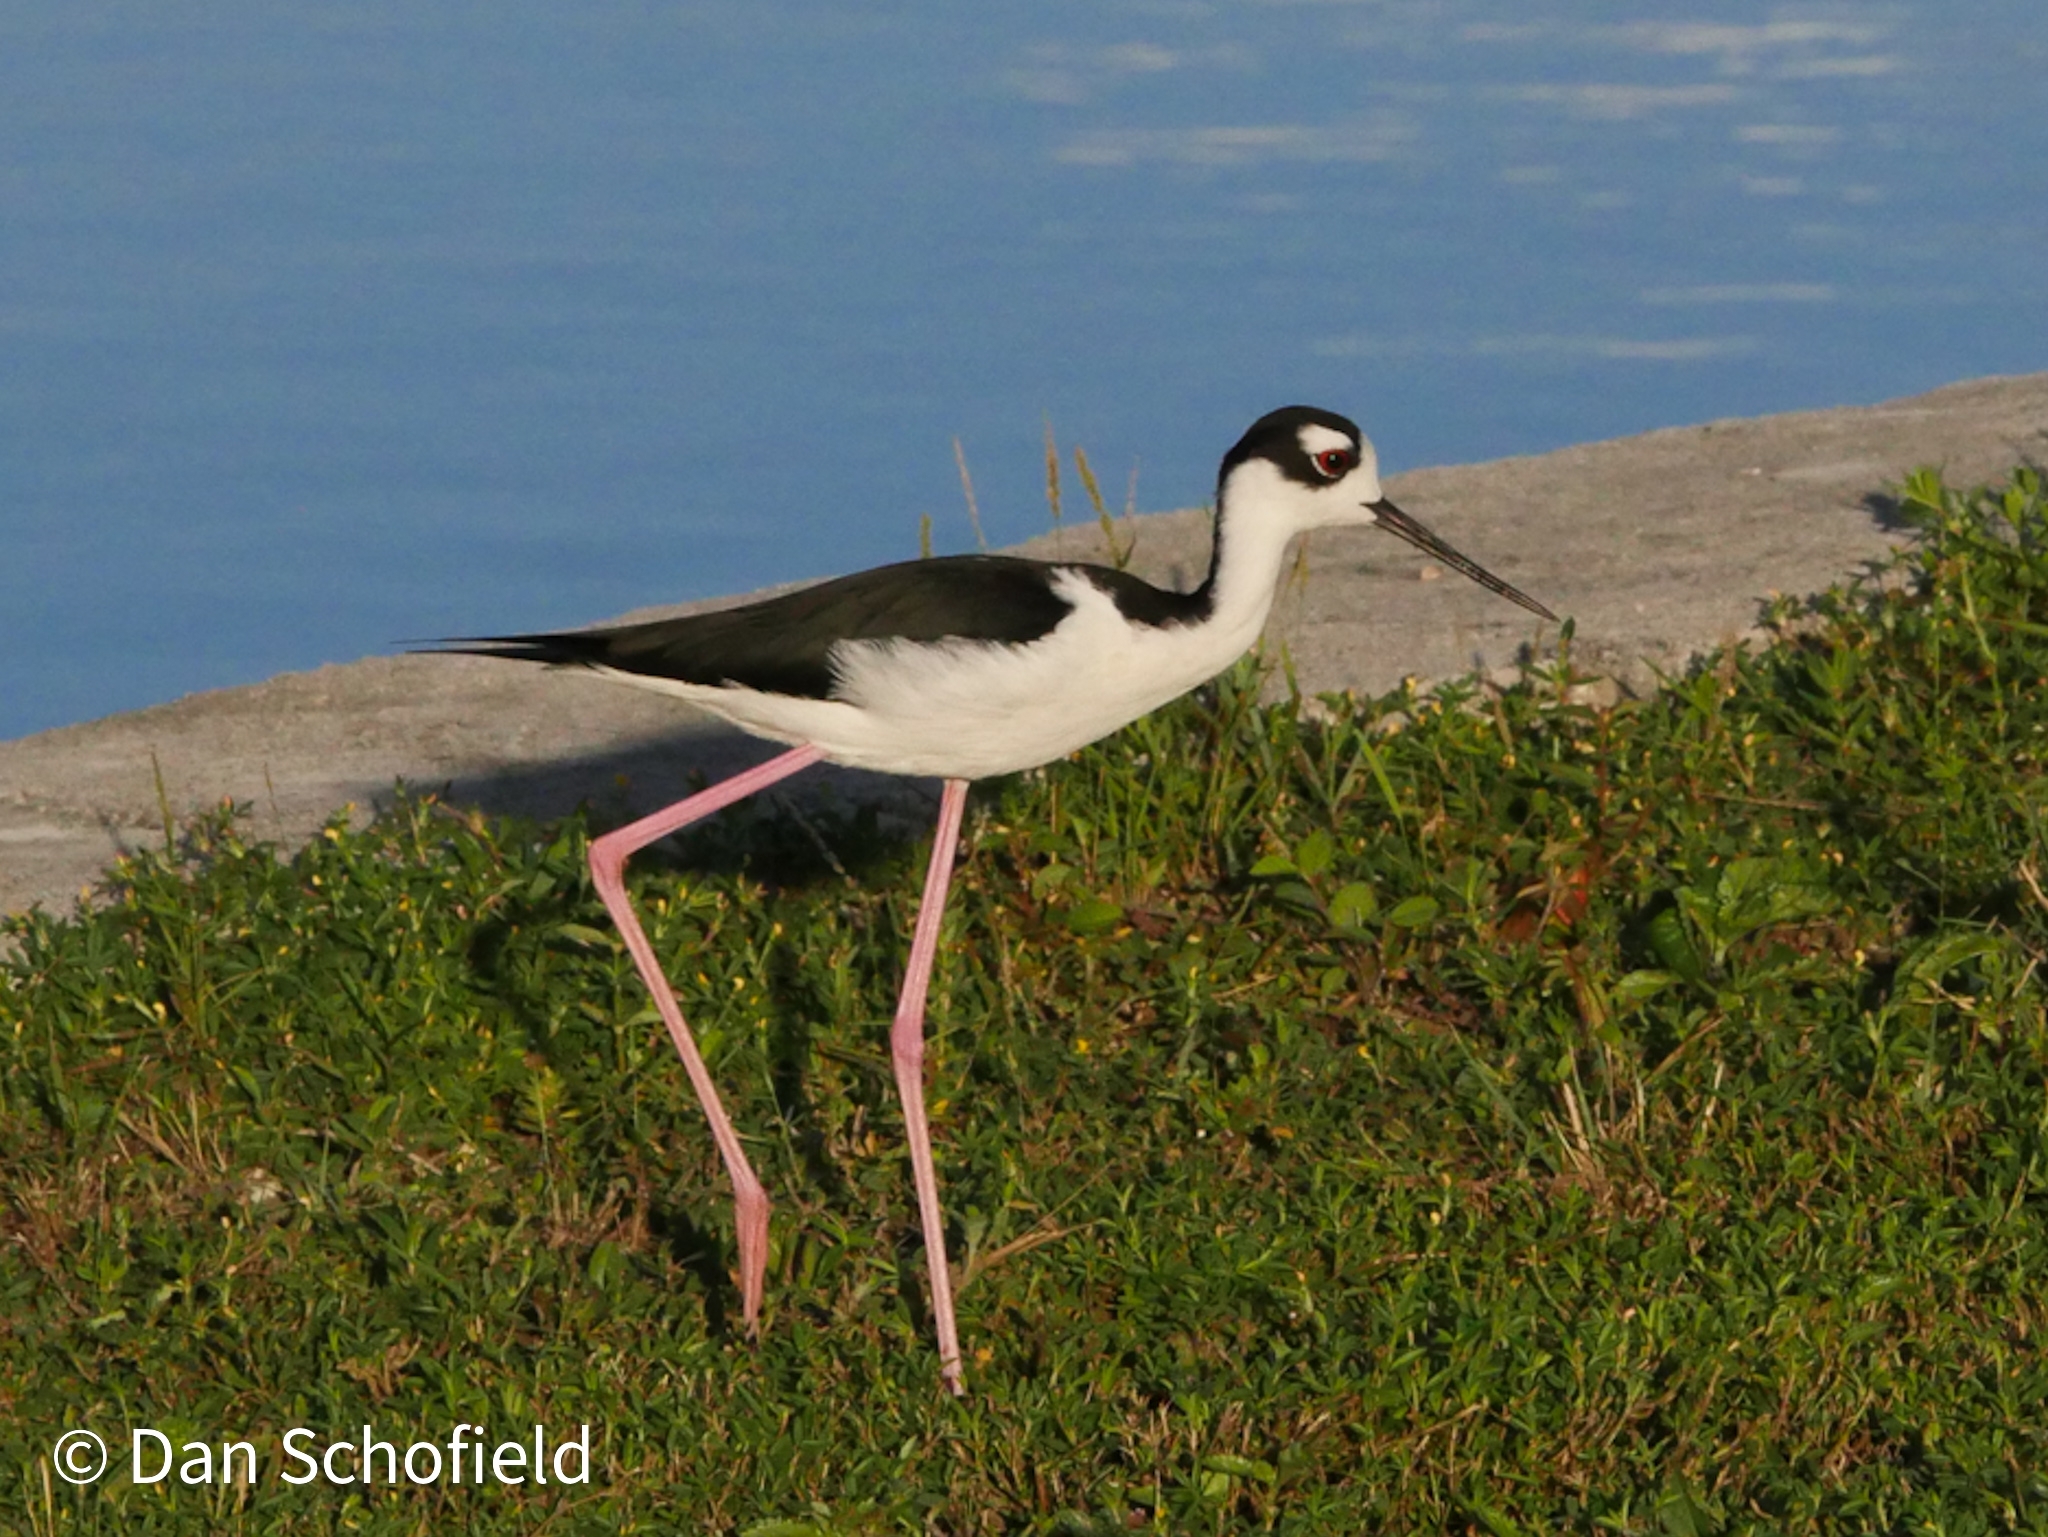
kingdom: Animalia
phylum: Chordata
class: Aves
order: Charadriiformes
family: Recurvirostridae
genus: Himantopus
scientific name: Himantopus mexicanus
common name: Black-necked stilt
